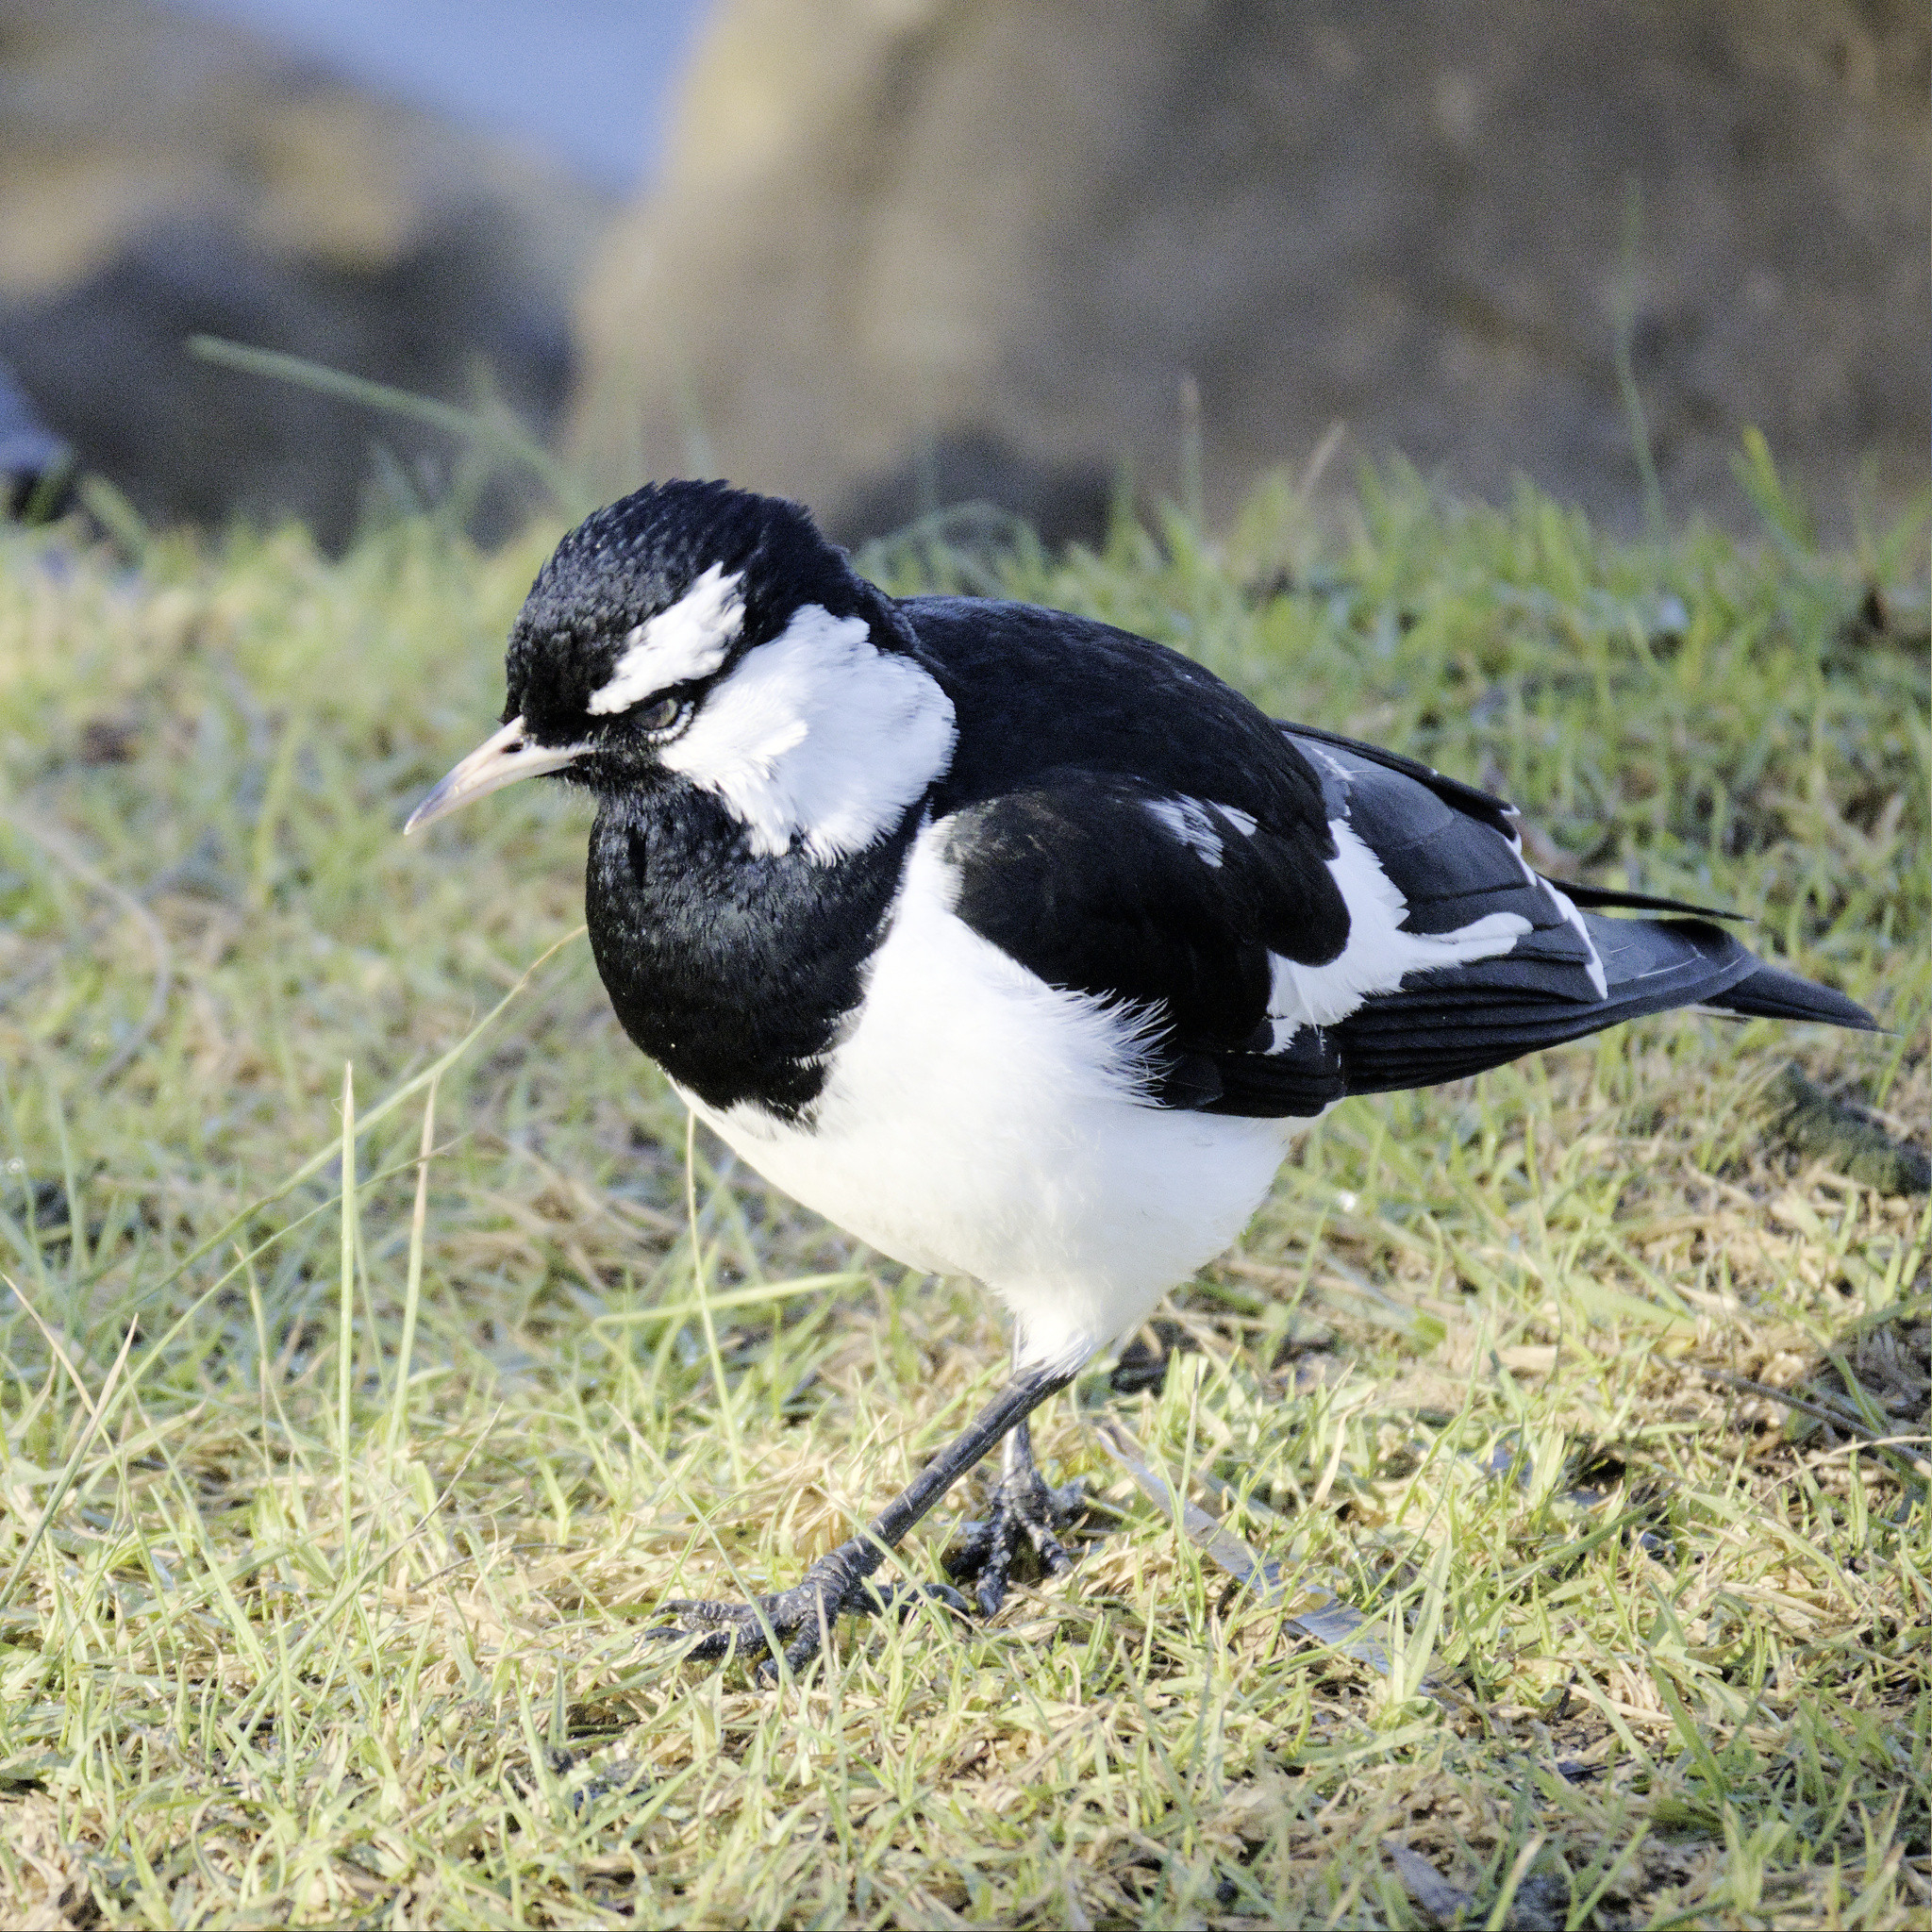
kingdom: Animalia
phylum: Chordata
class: Aves
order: Passeriformes
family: Monarchidae
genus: Grallina
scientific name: Grallina cyanoleuca
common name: Magpie-lark
